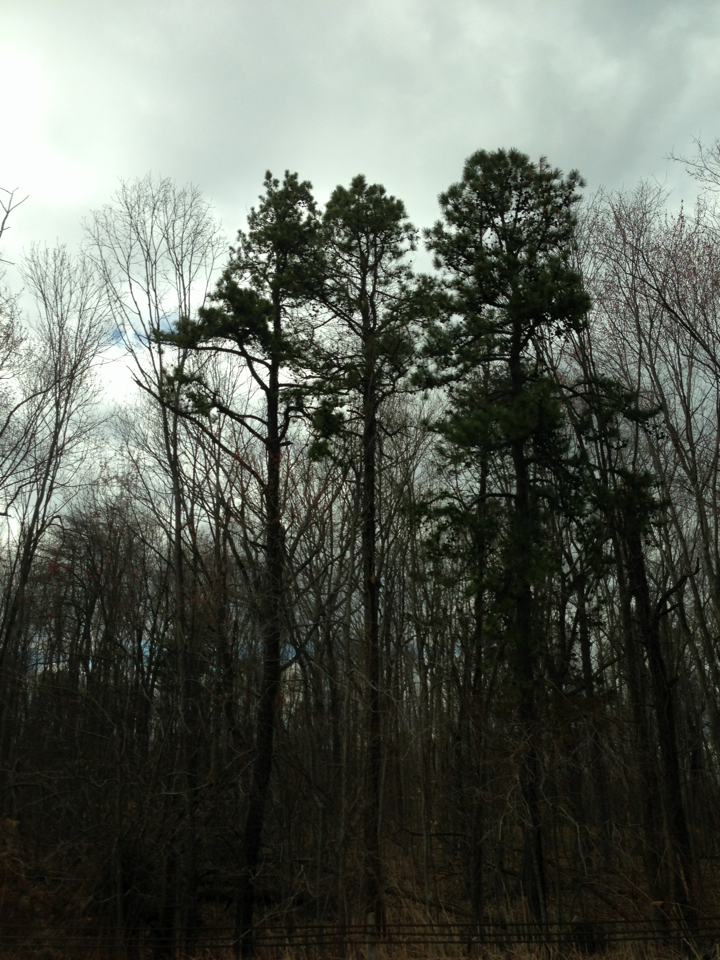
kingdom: Plantae
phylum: Tracheophyta
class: Pinopsida
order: Pinales
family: Pinaceae
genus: Pinus
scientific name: Pinus rigida
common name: Pitch pine
